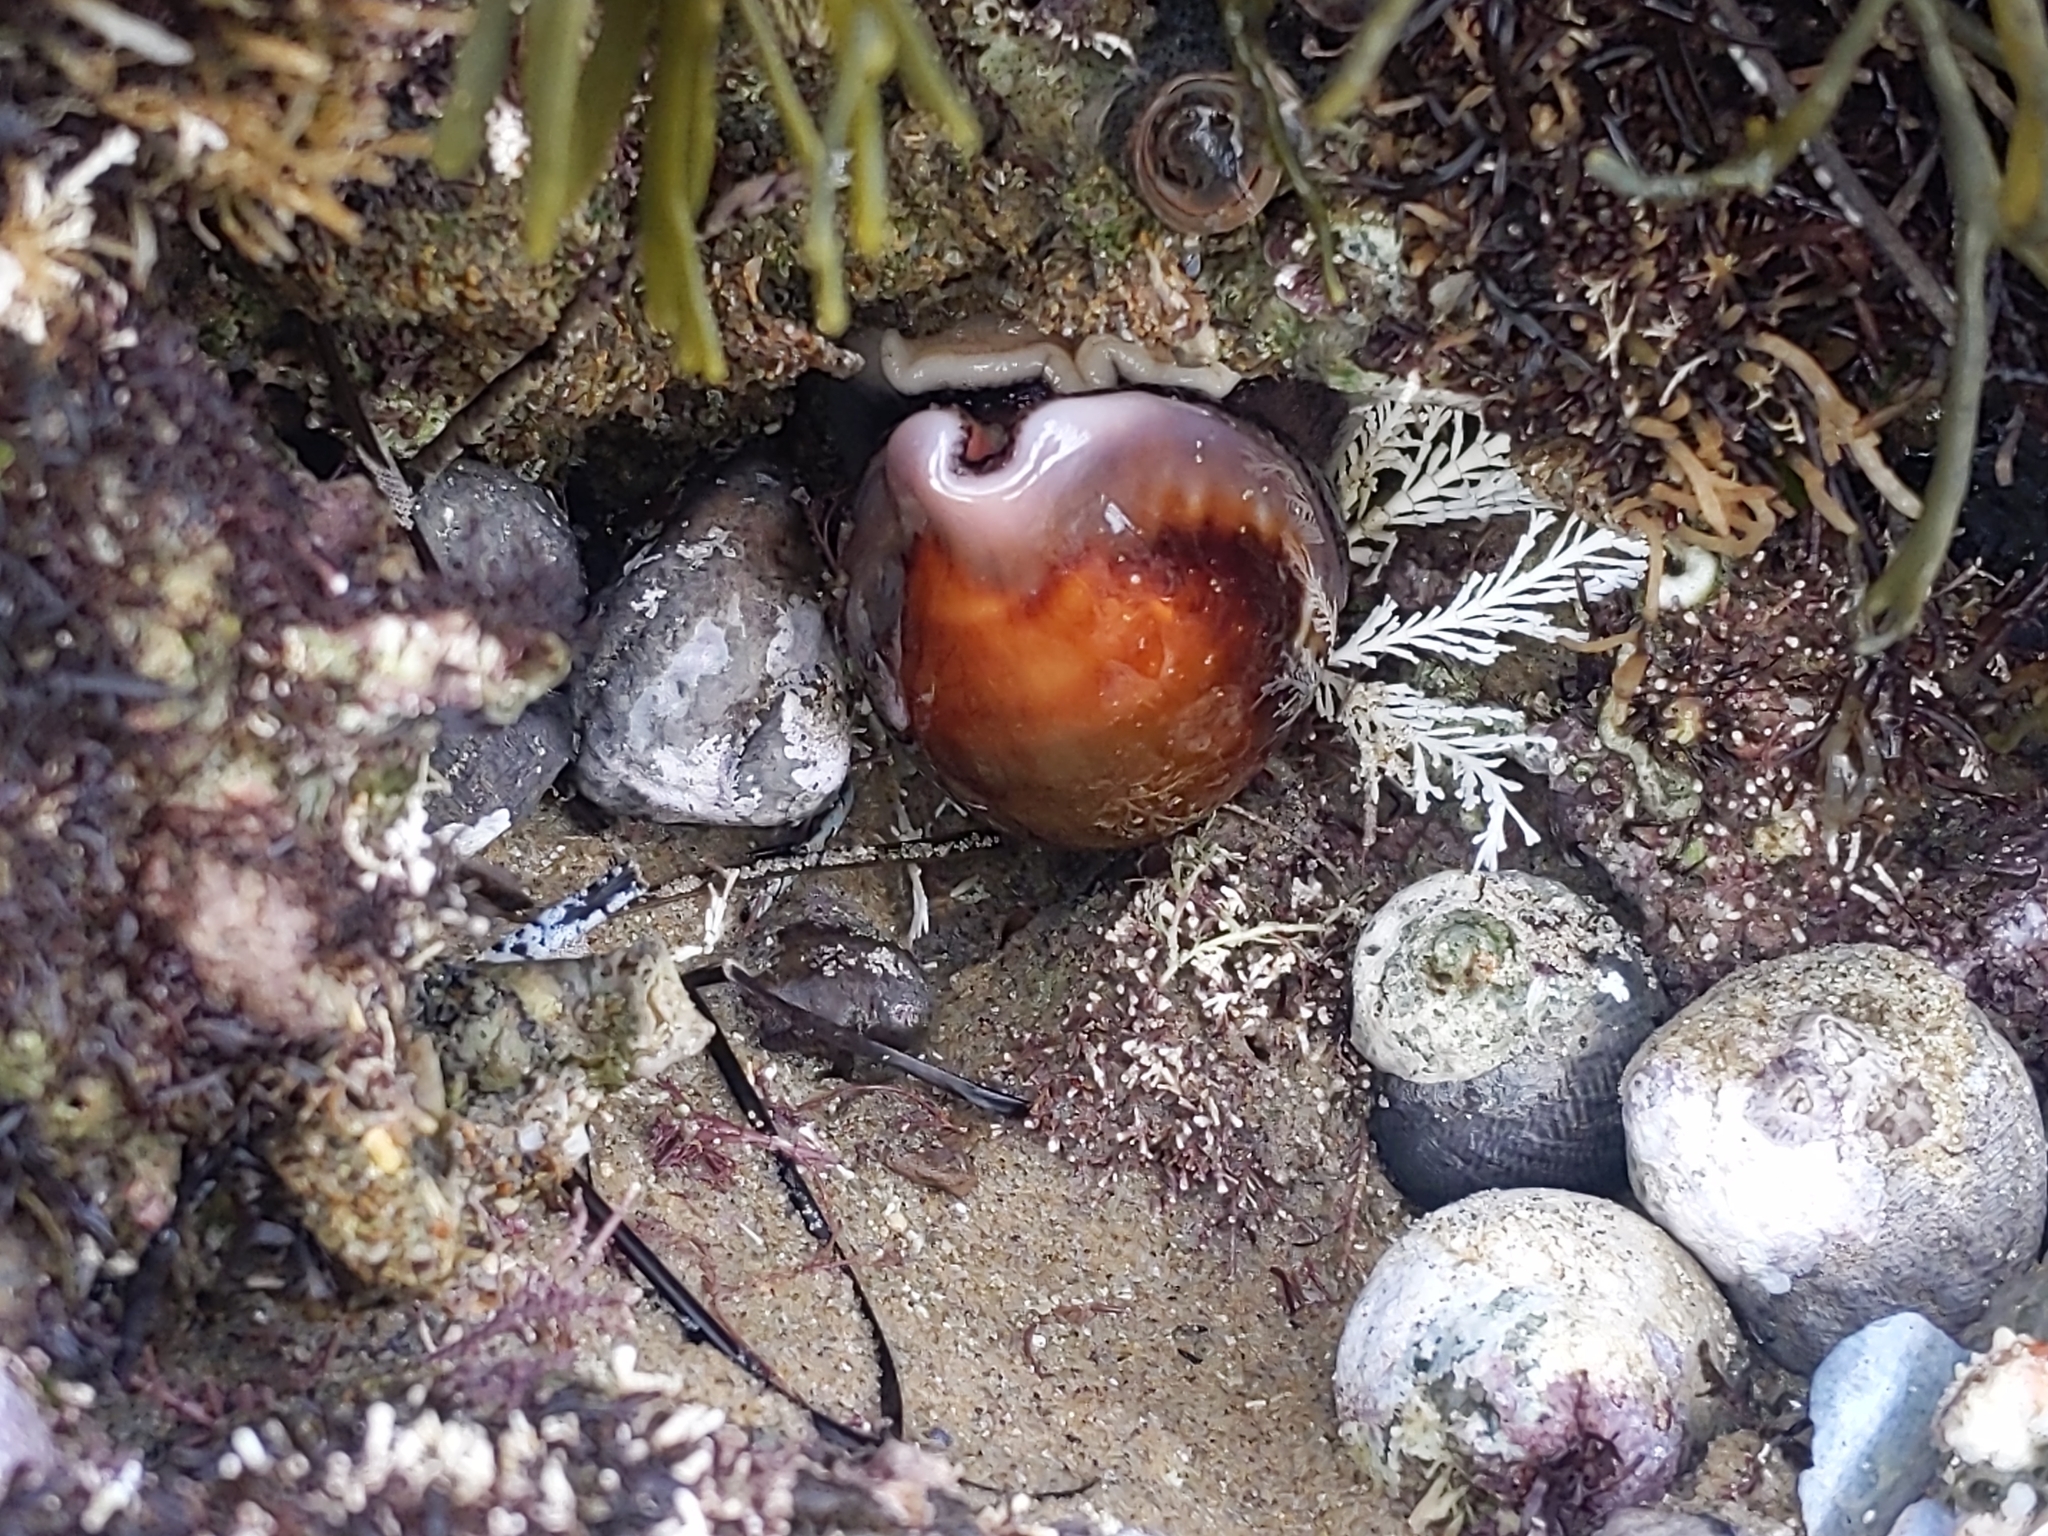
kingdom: Animalia
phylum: Mollusca
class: Gastropoda
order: Littorinimorpha
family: Cypraeidae
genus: Neobernaya
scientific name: Neobernaya spadicea
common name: Chestnut cowrie
